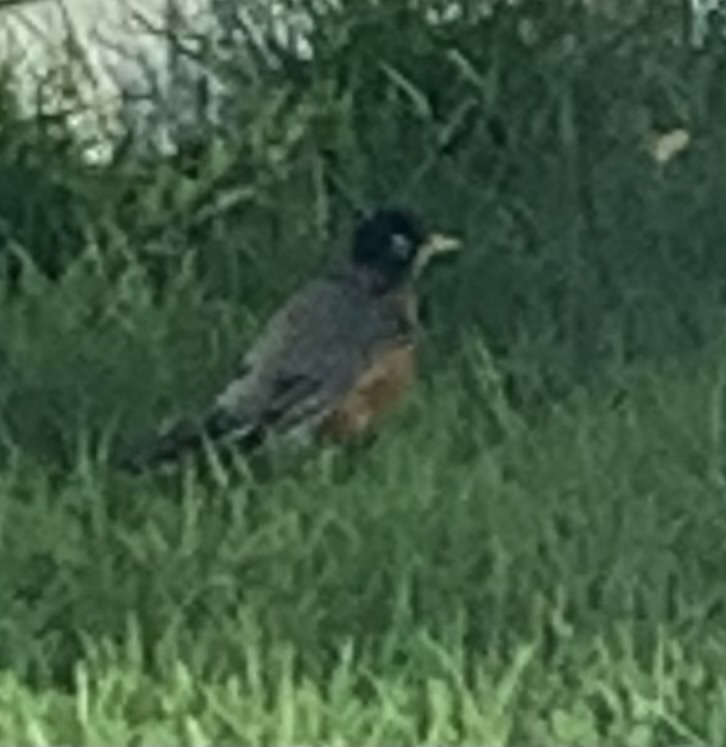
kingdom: Animalia
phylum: Chordata
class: Aves
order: Passeriformes
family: Turdidae
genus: Turdus
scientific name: Turdus migratorius
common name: American robin
